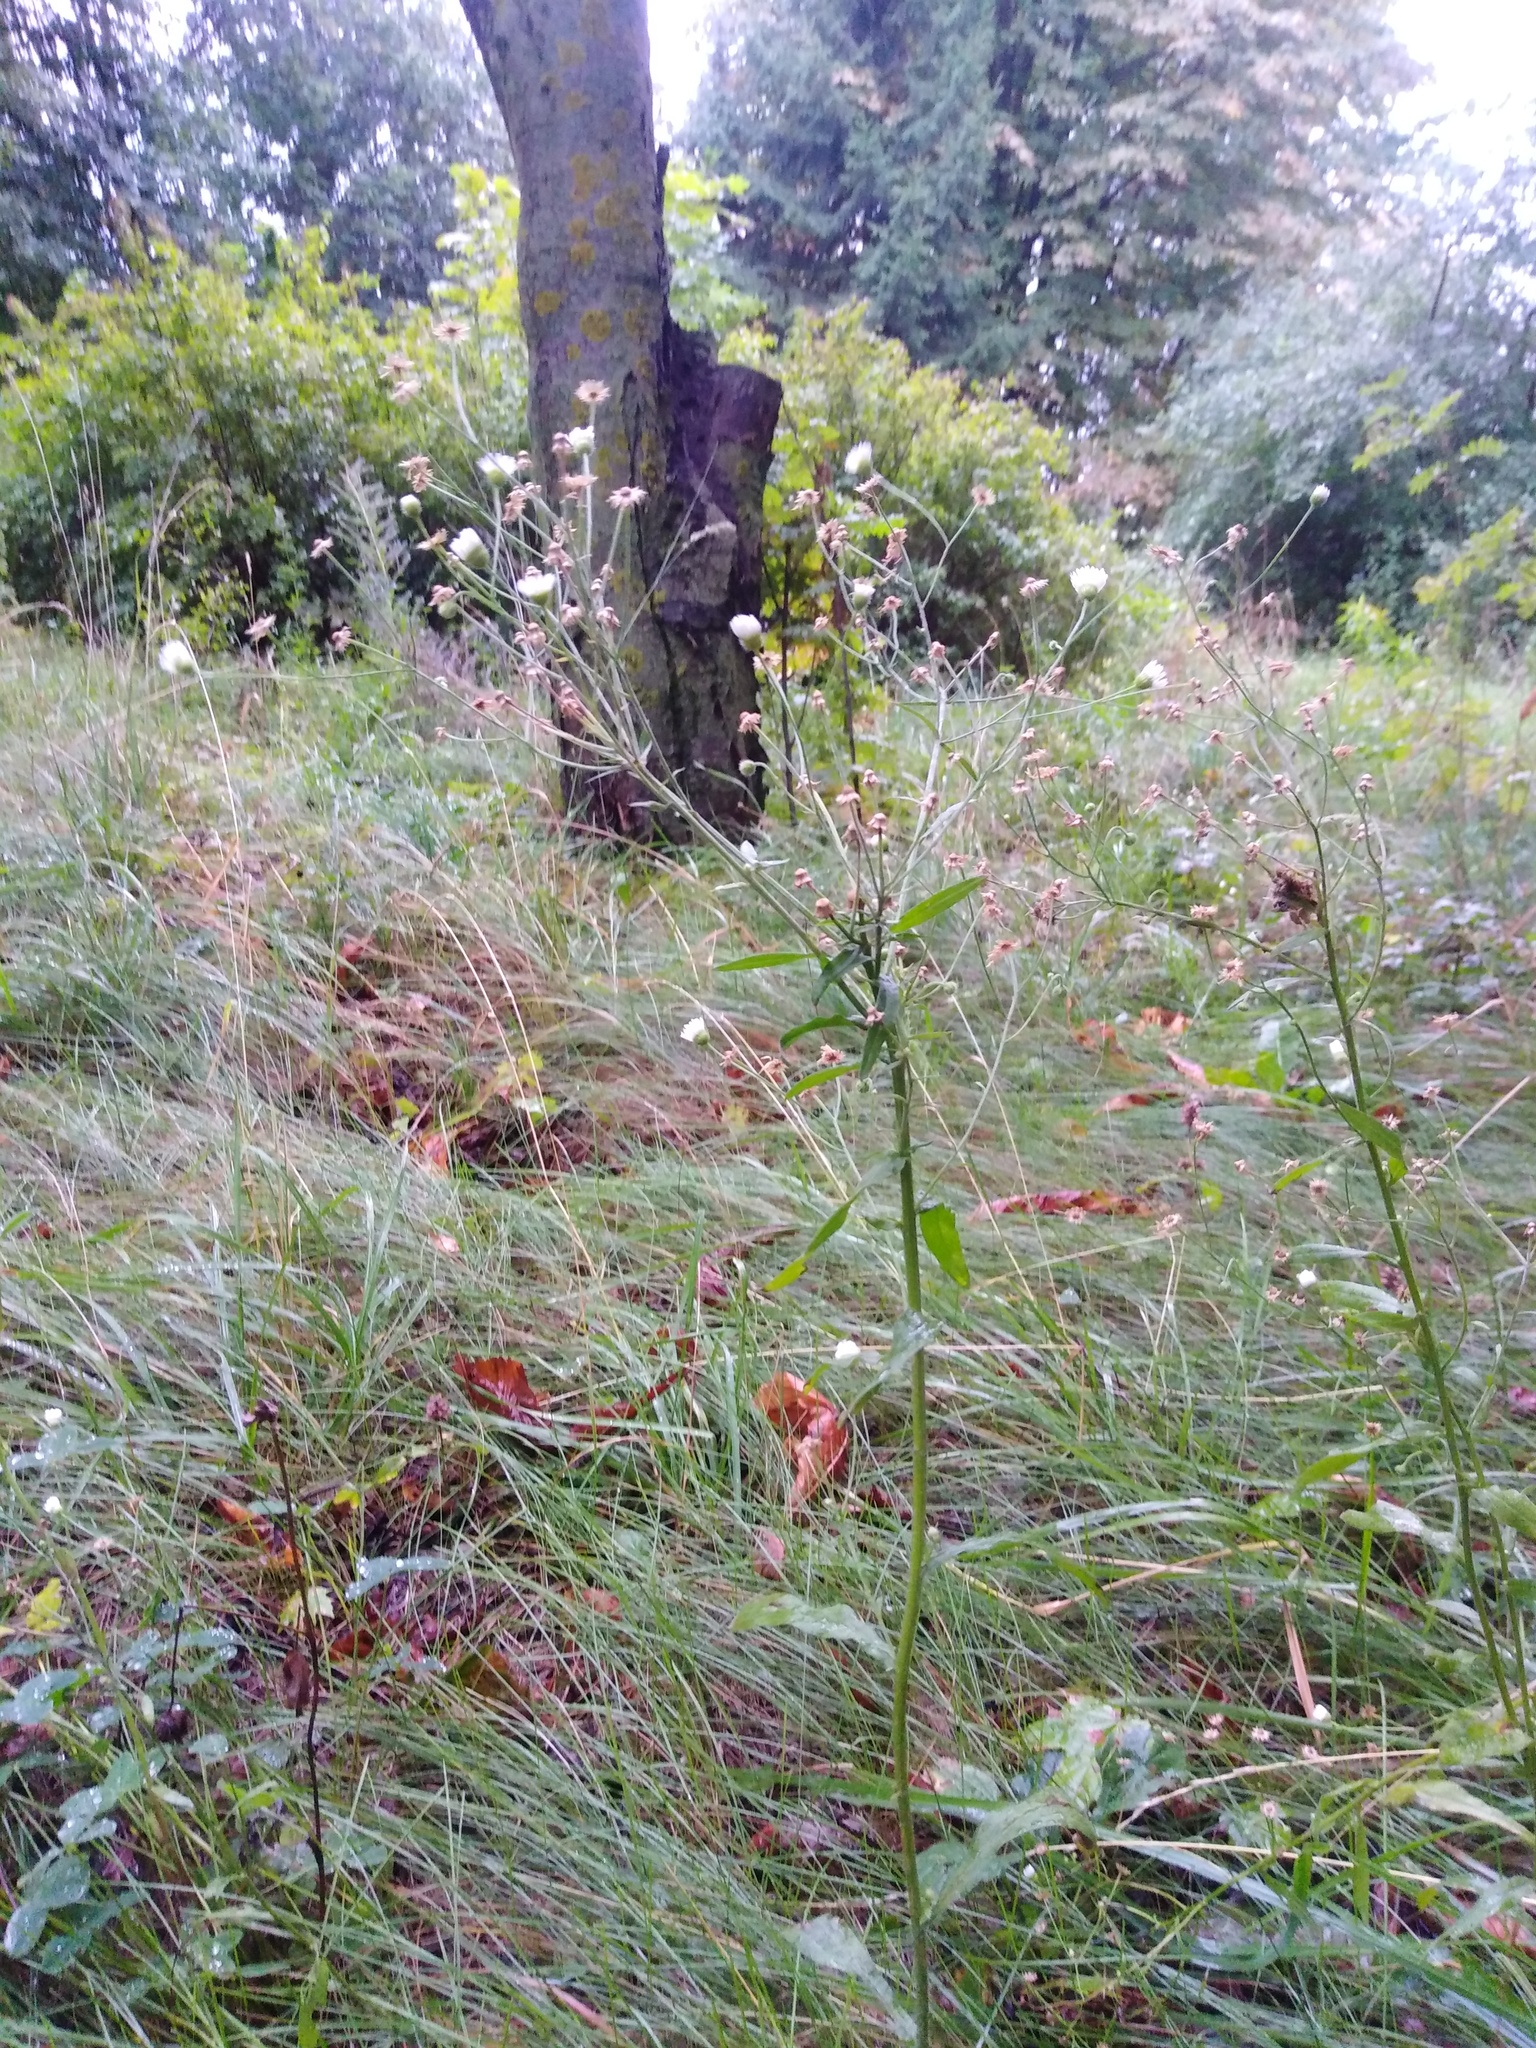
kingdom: Plantae
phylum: Tracheophyta
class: Magnoliopsida
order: Asterales
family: Asteraceae
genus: Erigeron
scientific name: Erigeron annuus
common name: Tall fleabane
